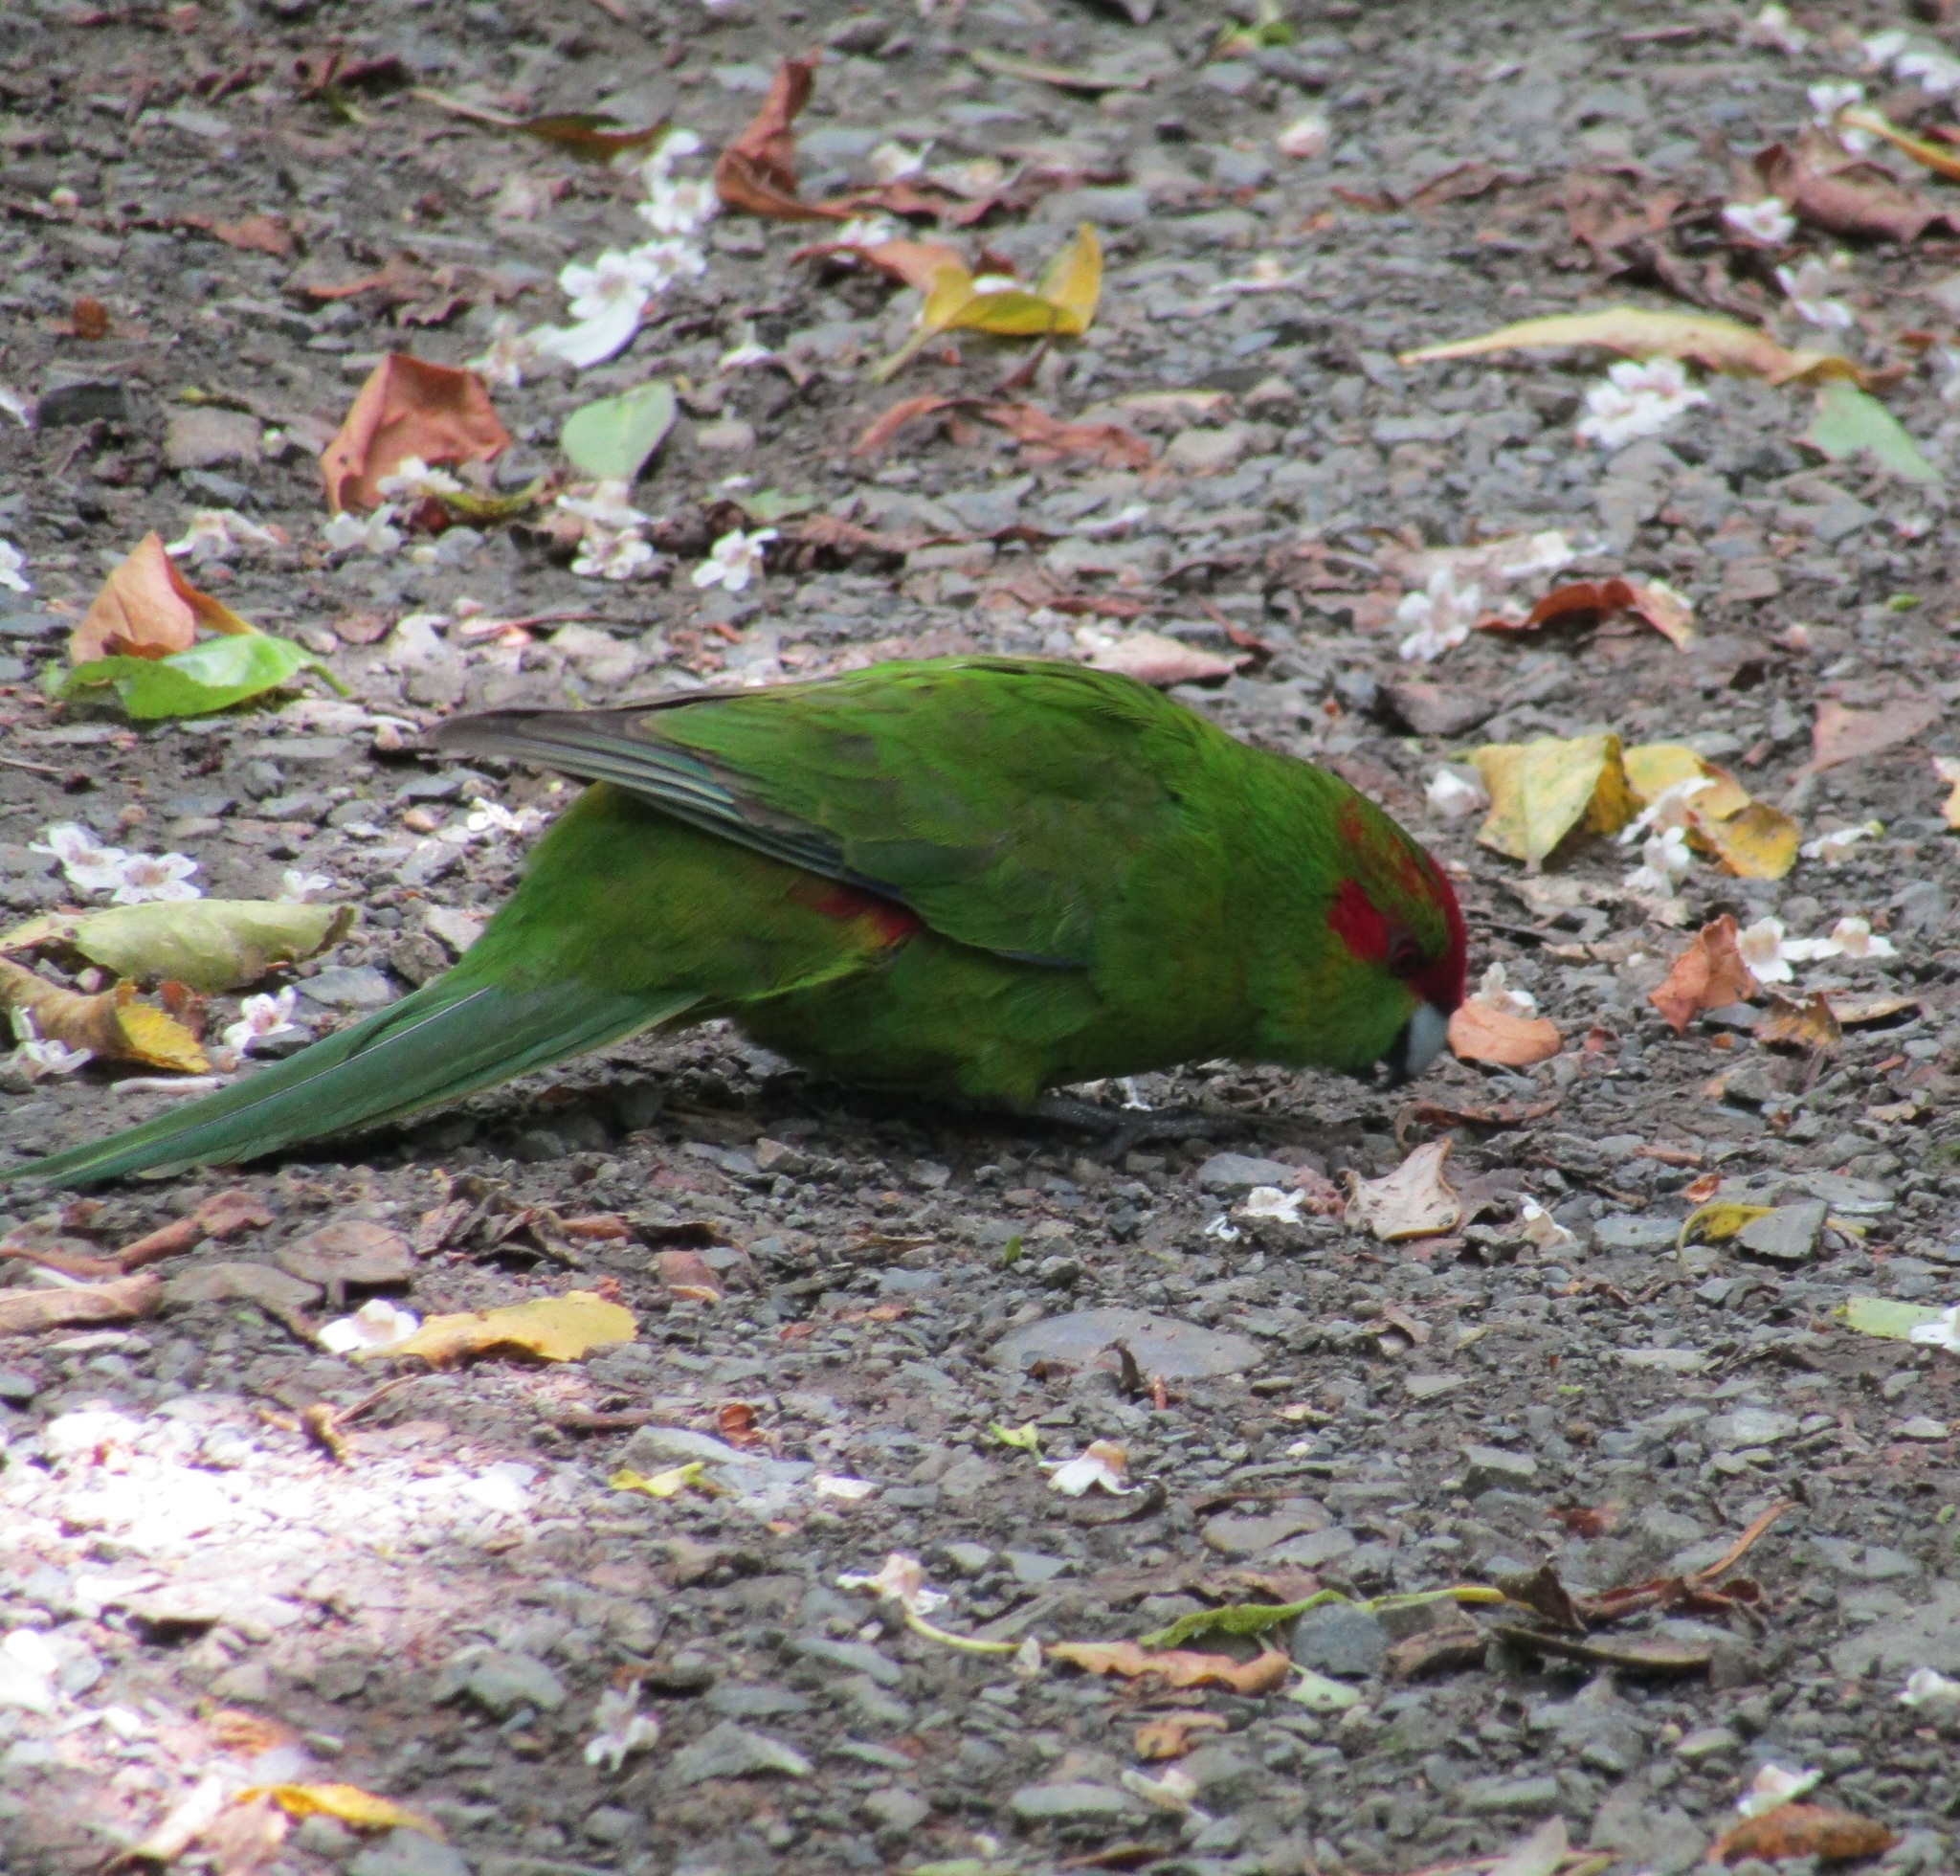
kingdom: Animalia
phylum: Chordata
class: Aves
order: Psittaciformes
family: Psittacidae
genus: Cyanoramphus
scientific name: Cyanoramphus novaezelandiae
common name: Red-fronted parakeet
